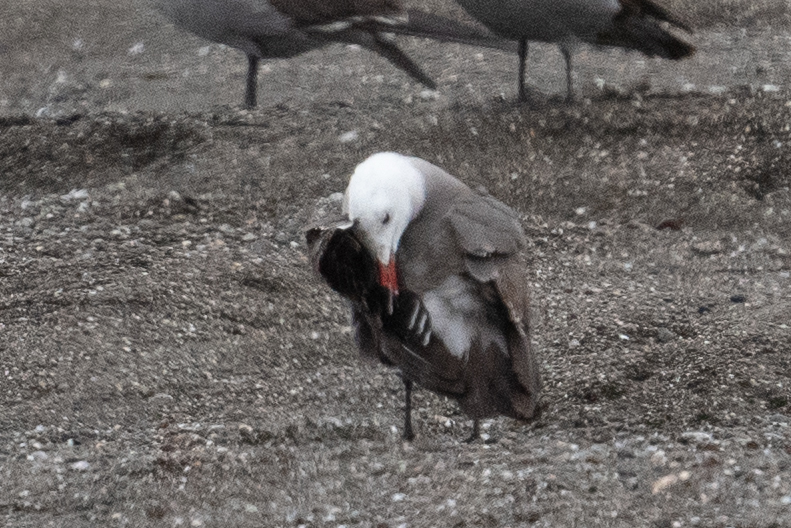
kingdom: Animalia
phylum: Chordata
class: Aves
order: Charadriiformes
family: Laridae
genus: Larus
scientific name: Larus heermanni
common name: Heermann's gull
